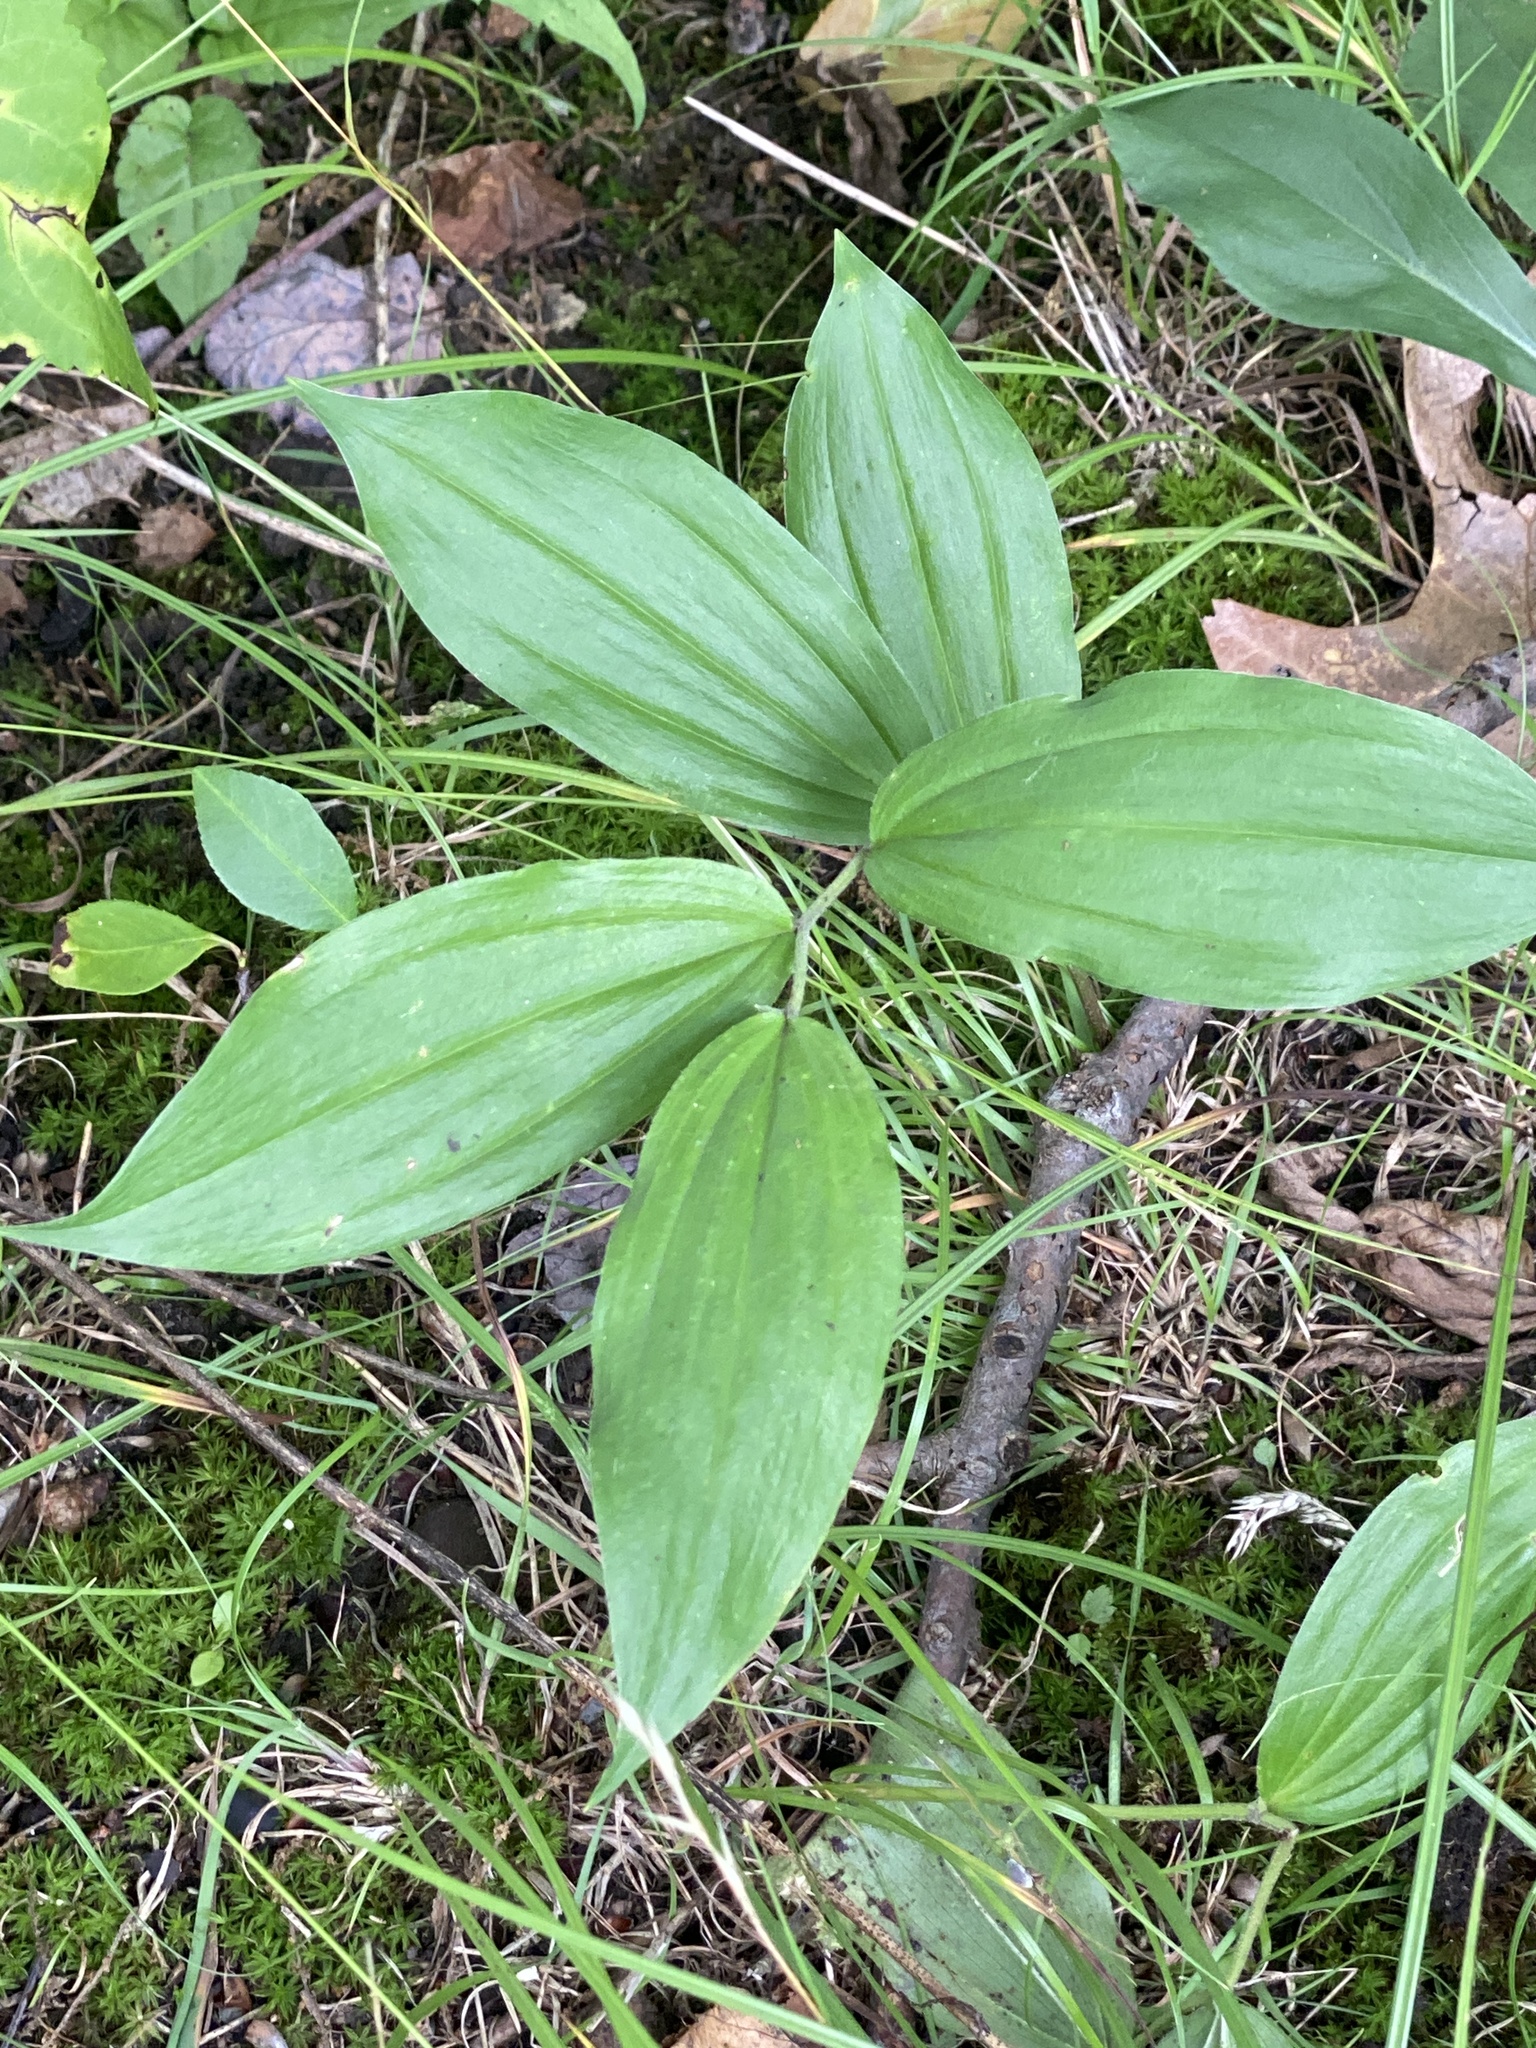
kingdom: Plantae
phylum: Tracheophyta
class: Liliopsida
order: Asparagales
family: Asparagaceae
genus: Maianthemum
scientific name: Maianthemum racemosum
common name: False spikenard
